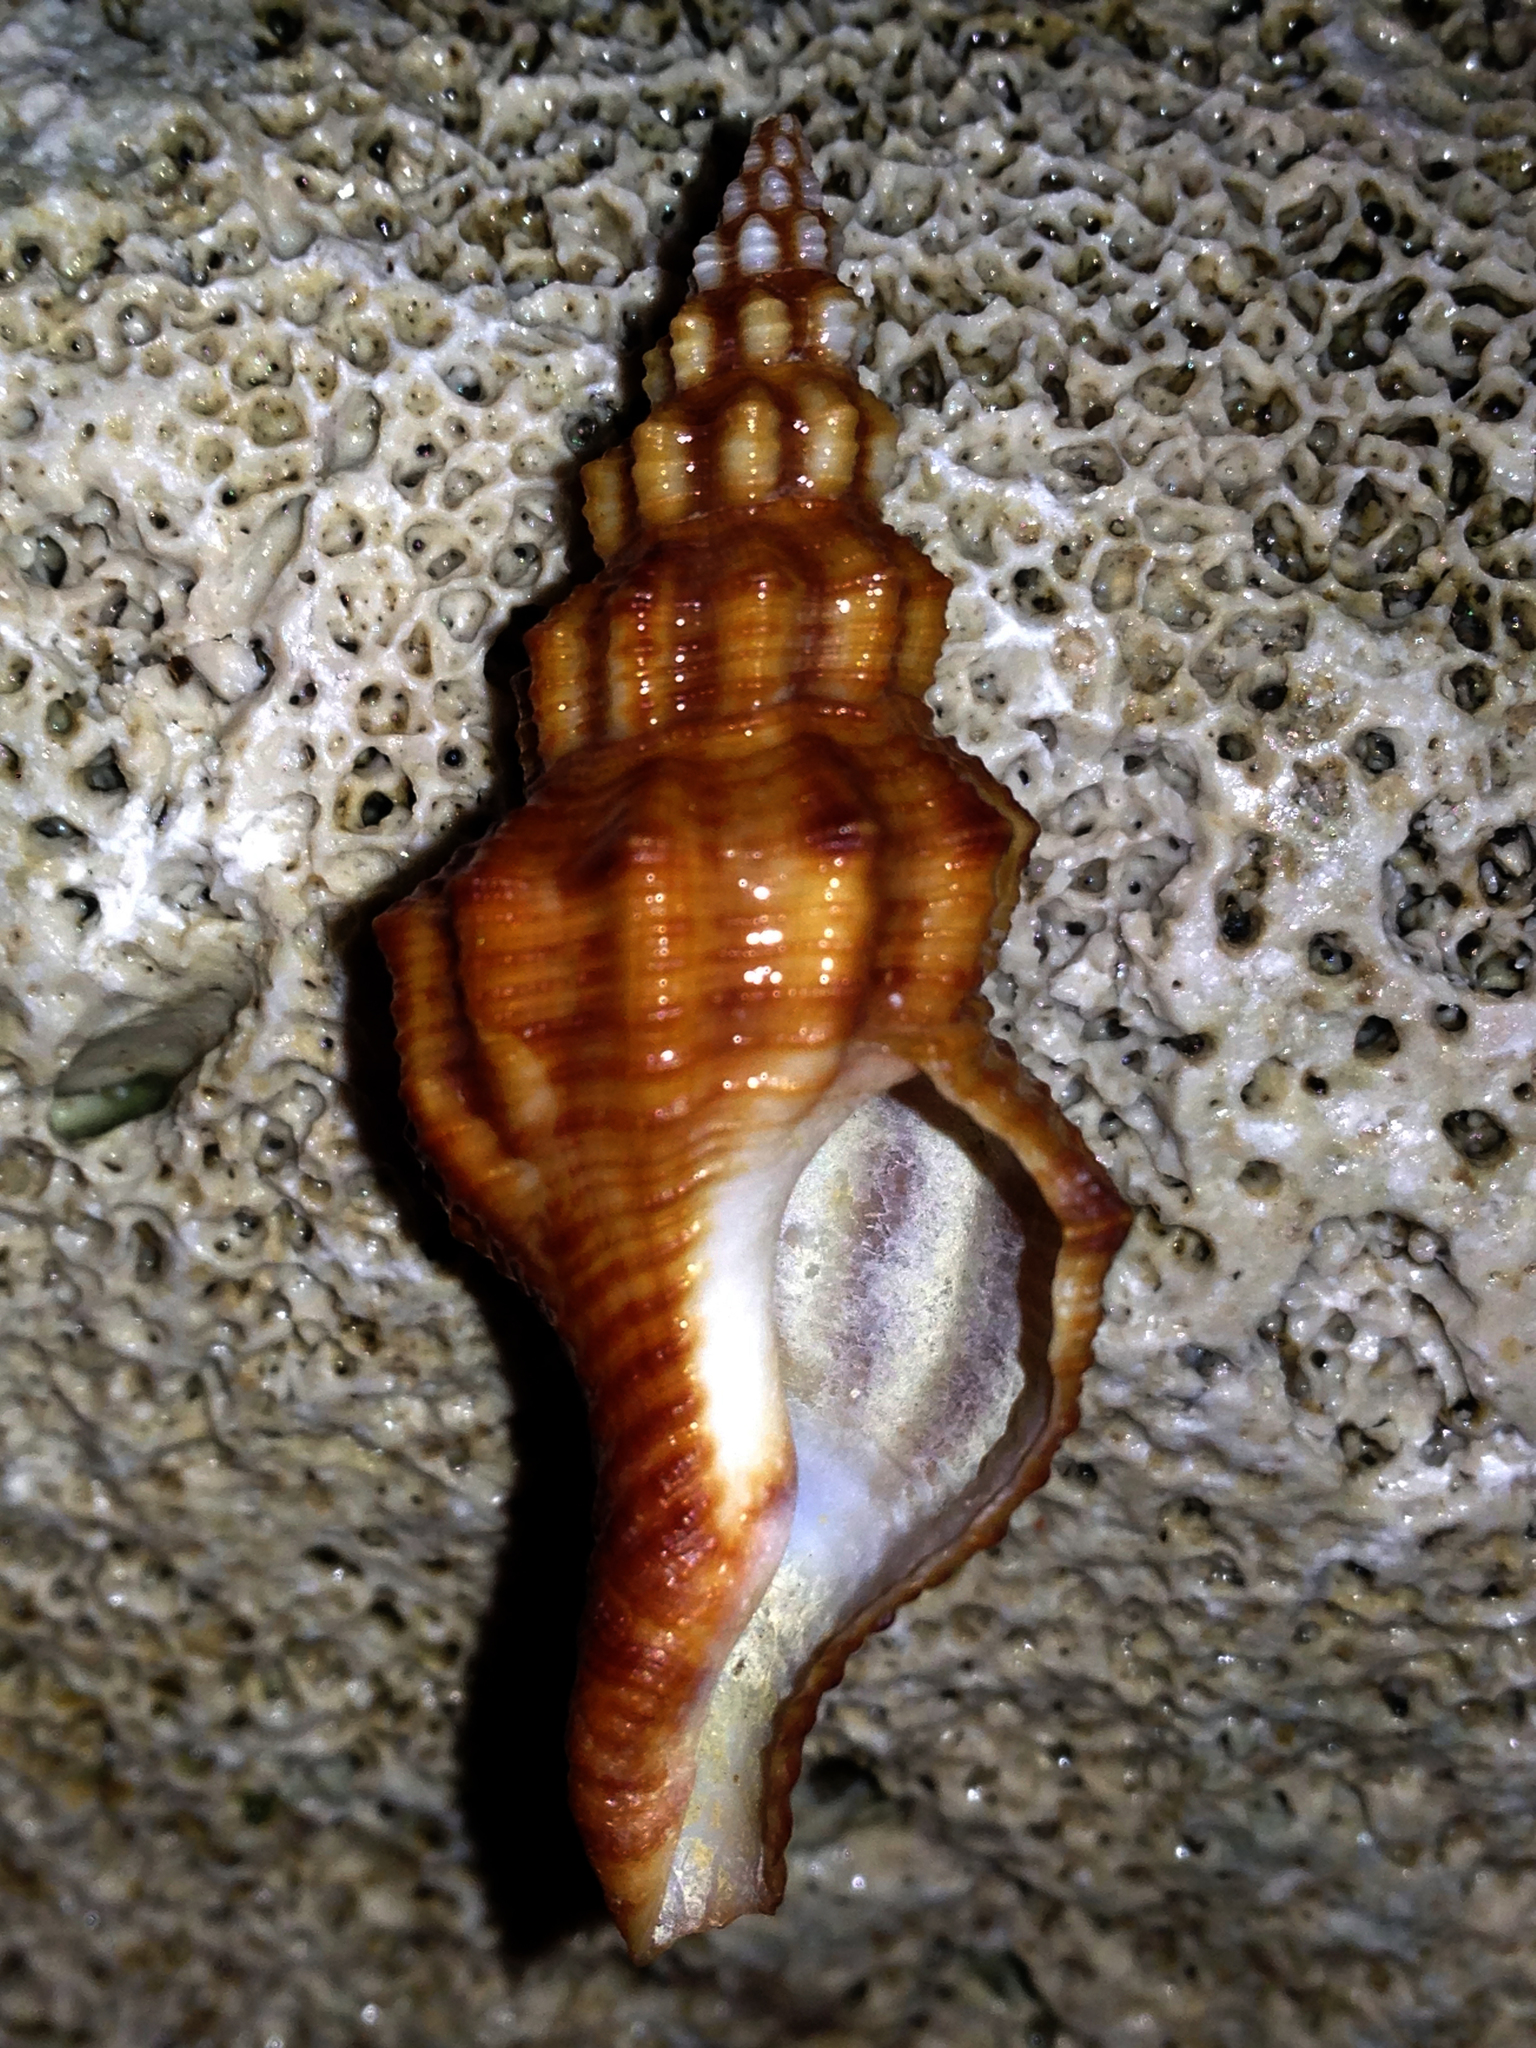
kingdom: Animalia
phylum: Mollusca
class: Gastropoda
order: Neogastropoda
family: Fasciolariidae
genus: Aptyxis
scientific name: Aptyxis syracusana
